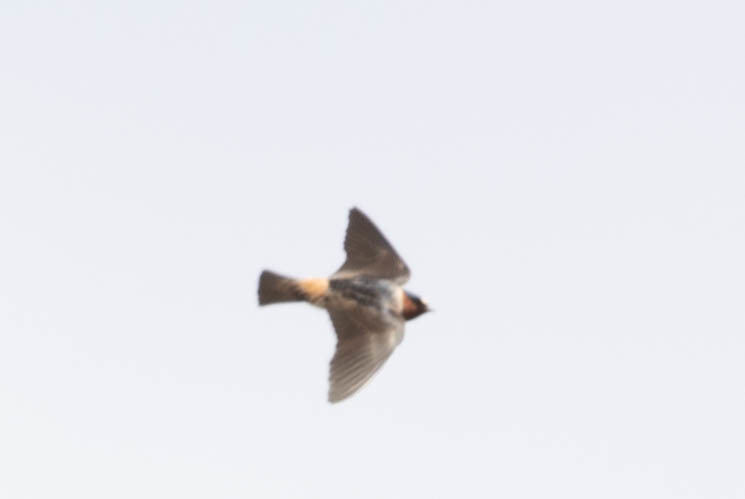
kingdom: Animalia
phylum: Chordata
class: Aves
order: Passeriformes
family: Hirundinidae
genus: Petrochelidon
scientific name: Petrochelidon pyrrhonota
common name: American cliff swallow
